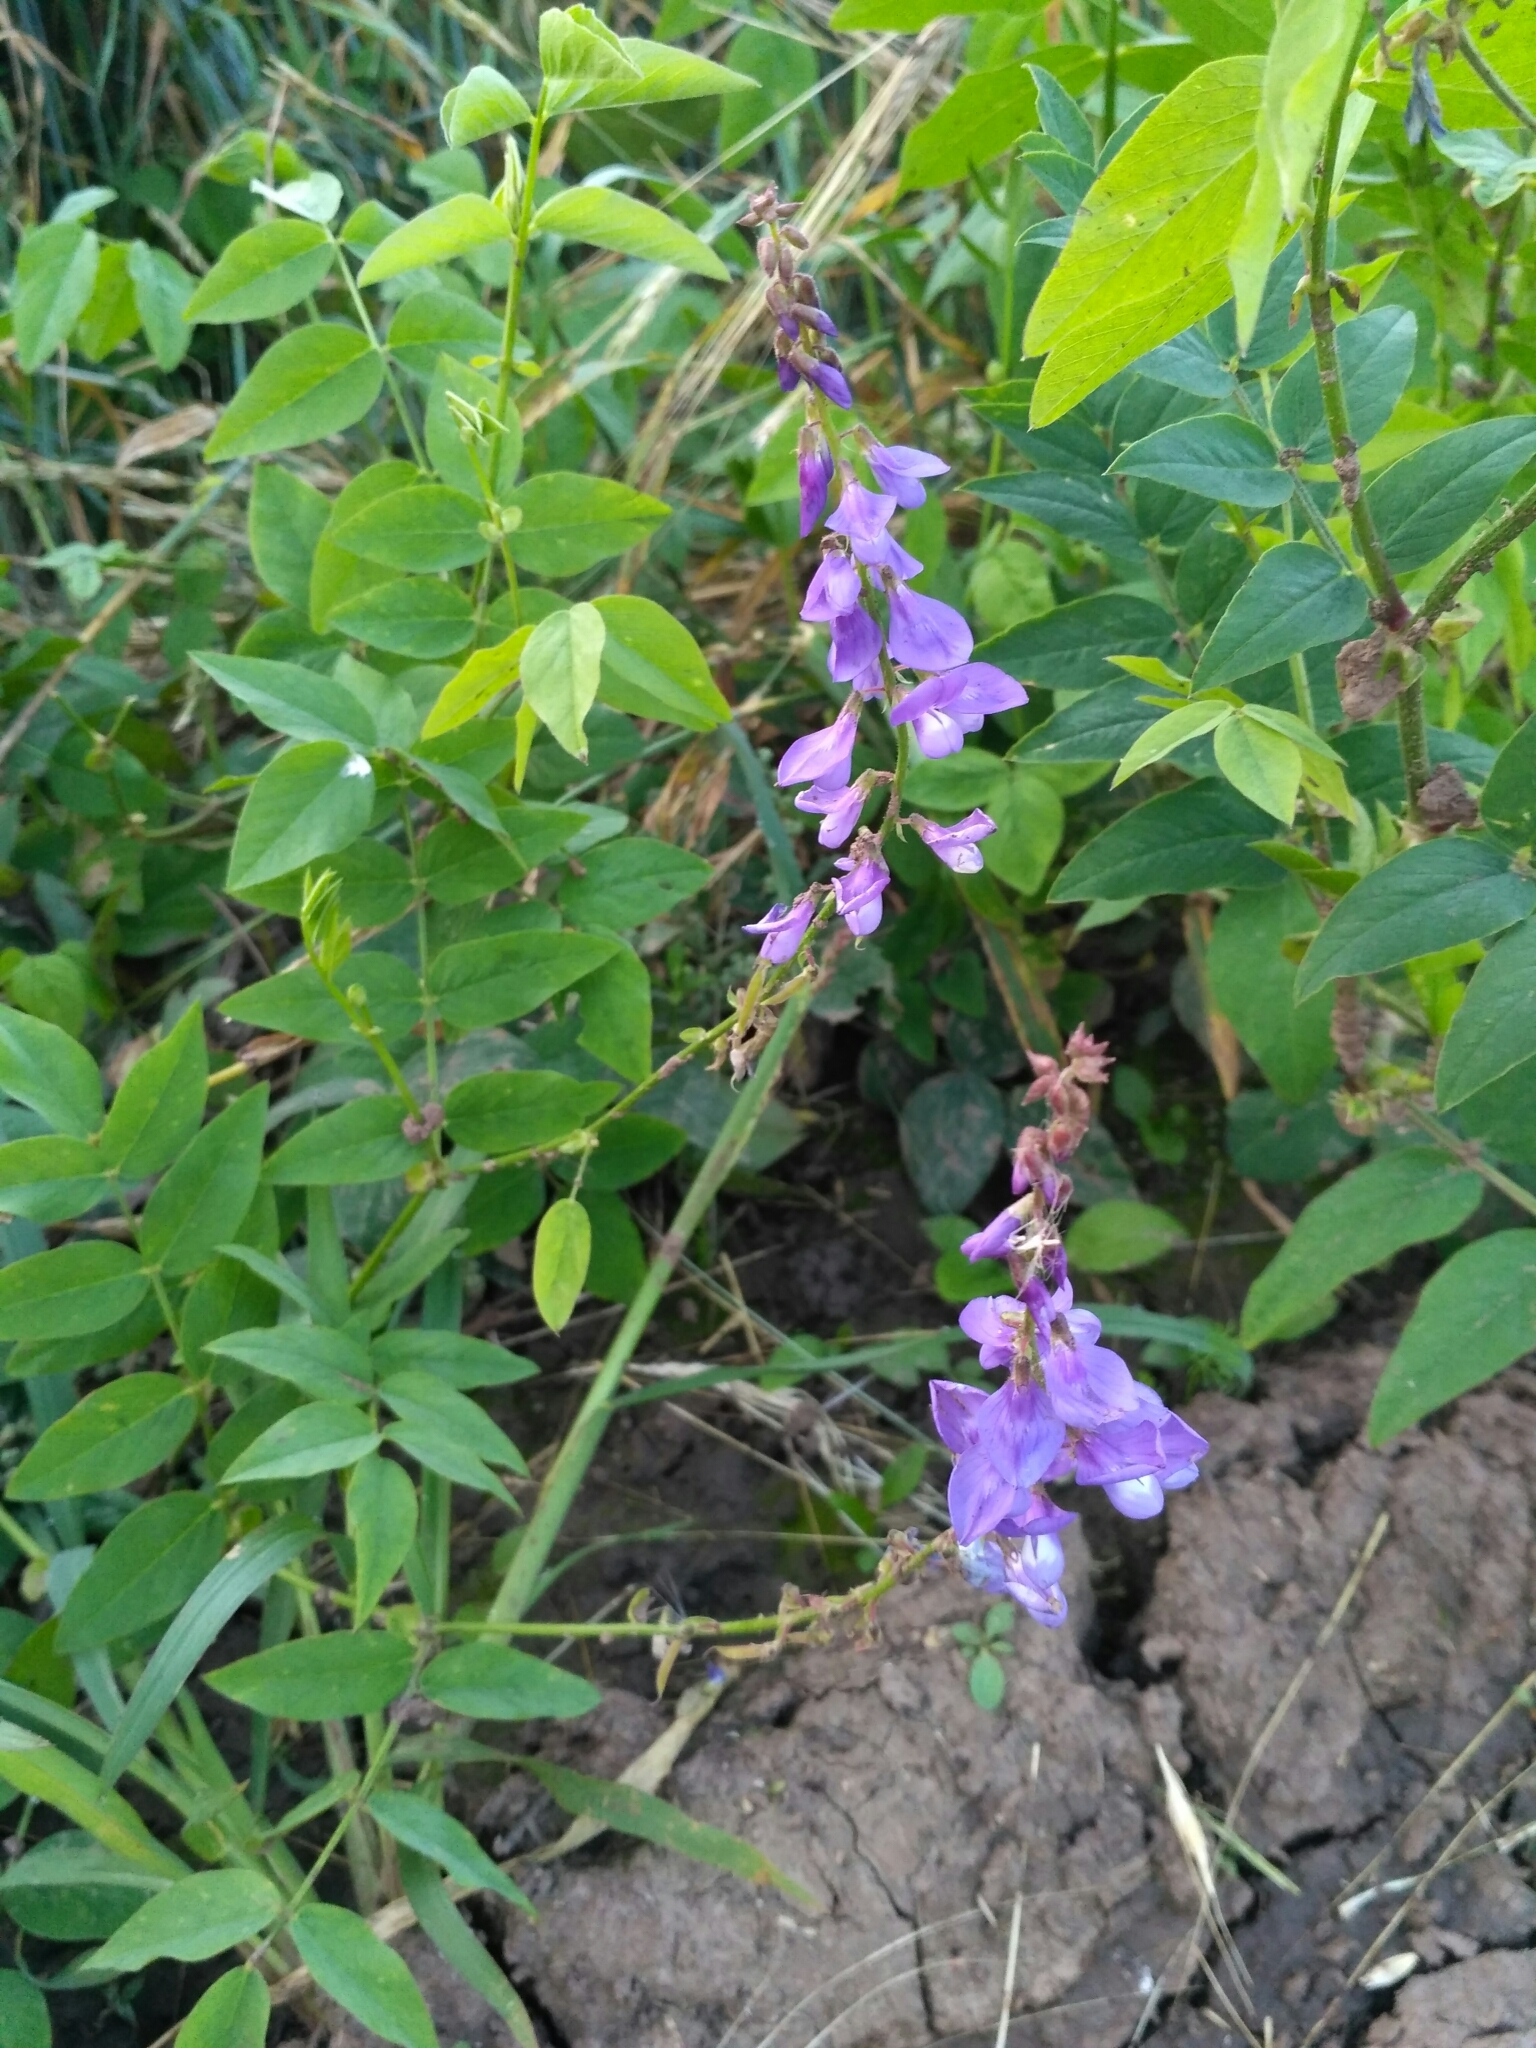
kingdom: Plantae
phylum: Tracheophyta
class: Magnoliopsida
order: Fabales
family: Fabaceae
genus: Galega
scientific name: Galega orientalis
